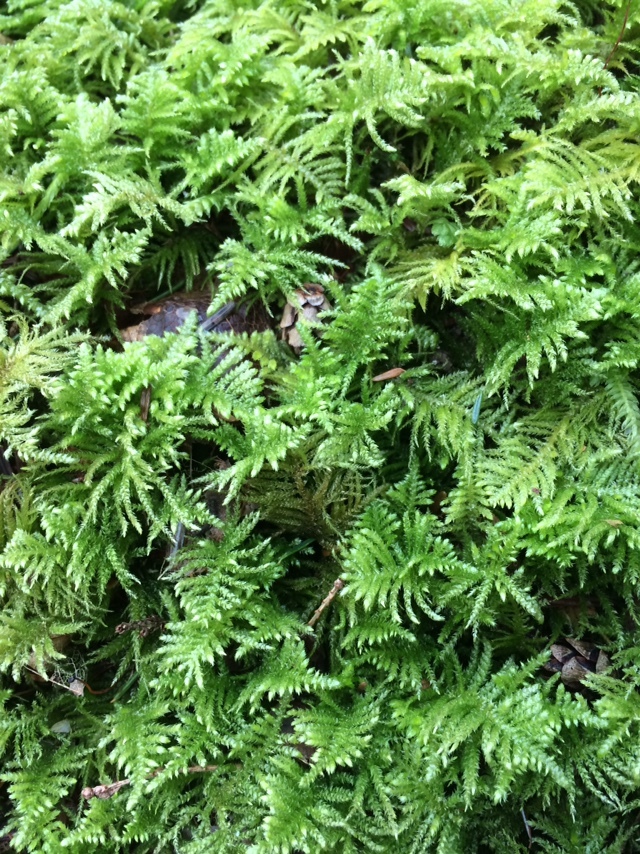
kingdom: Plantae
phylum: Bryophyta
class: Bryopsida
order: Hypnales
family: Brachytheciaceae
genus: Kindbergia
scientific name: Kindbergia oregana
